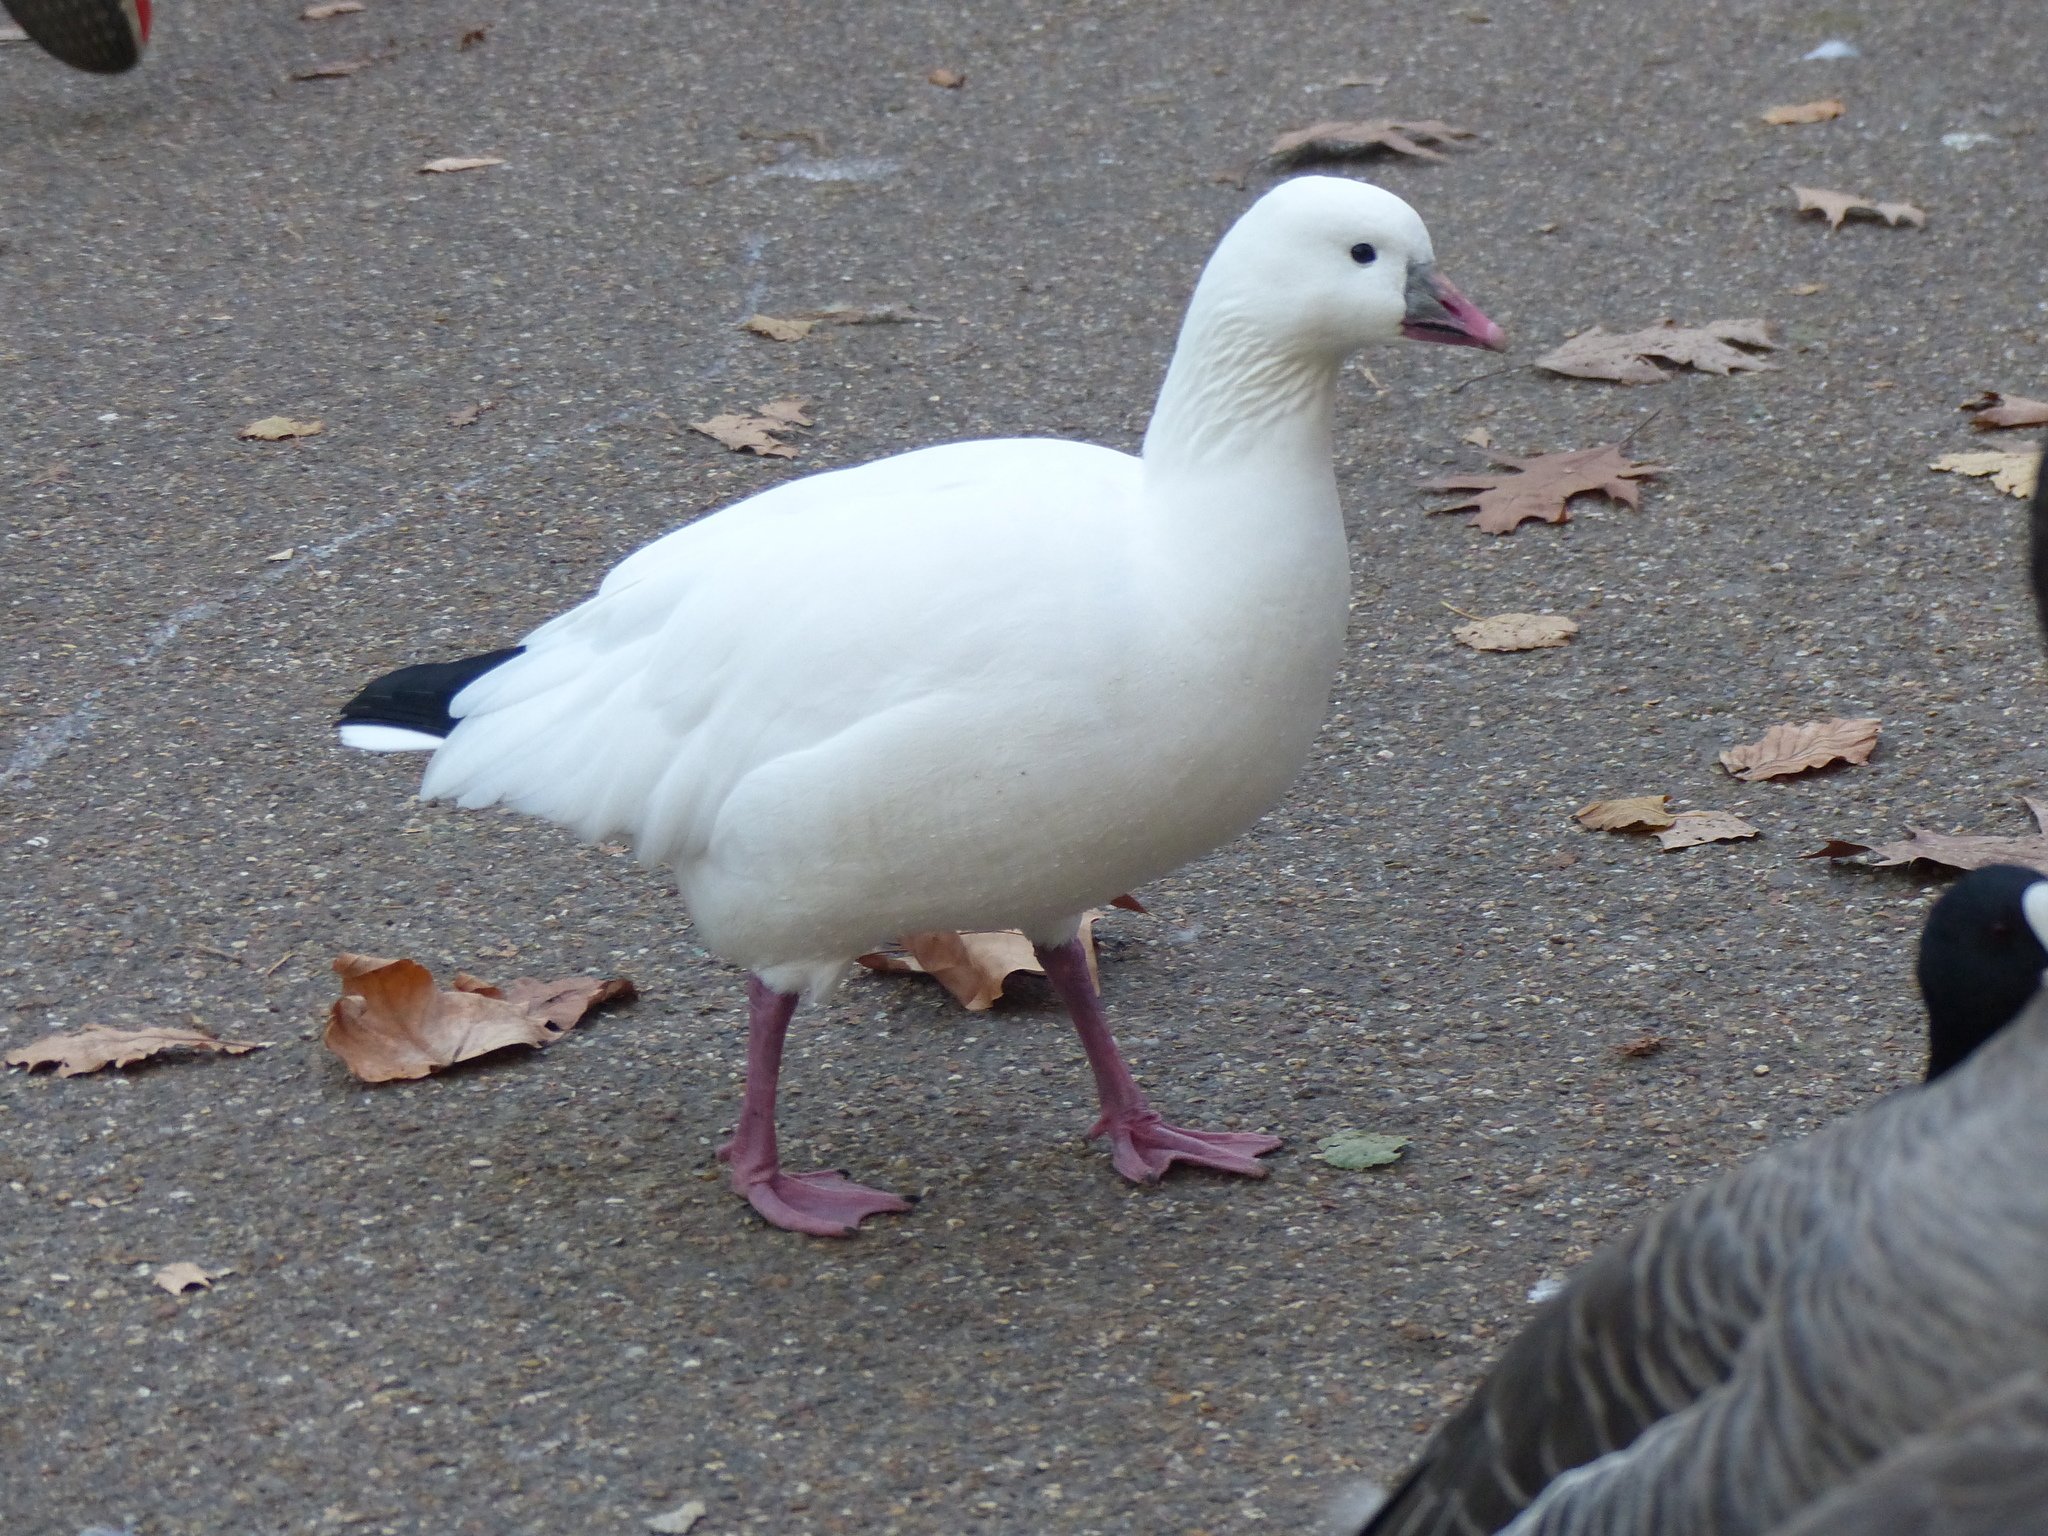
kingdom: Animalia
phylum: Chordata
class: Aves
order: Anseriformes
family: Anatidae
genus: Anser
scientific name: Anser rossii
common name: Ross's goose
